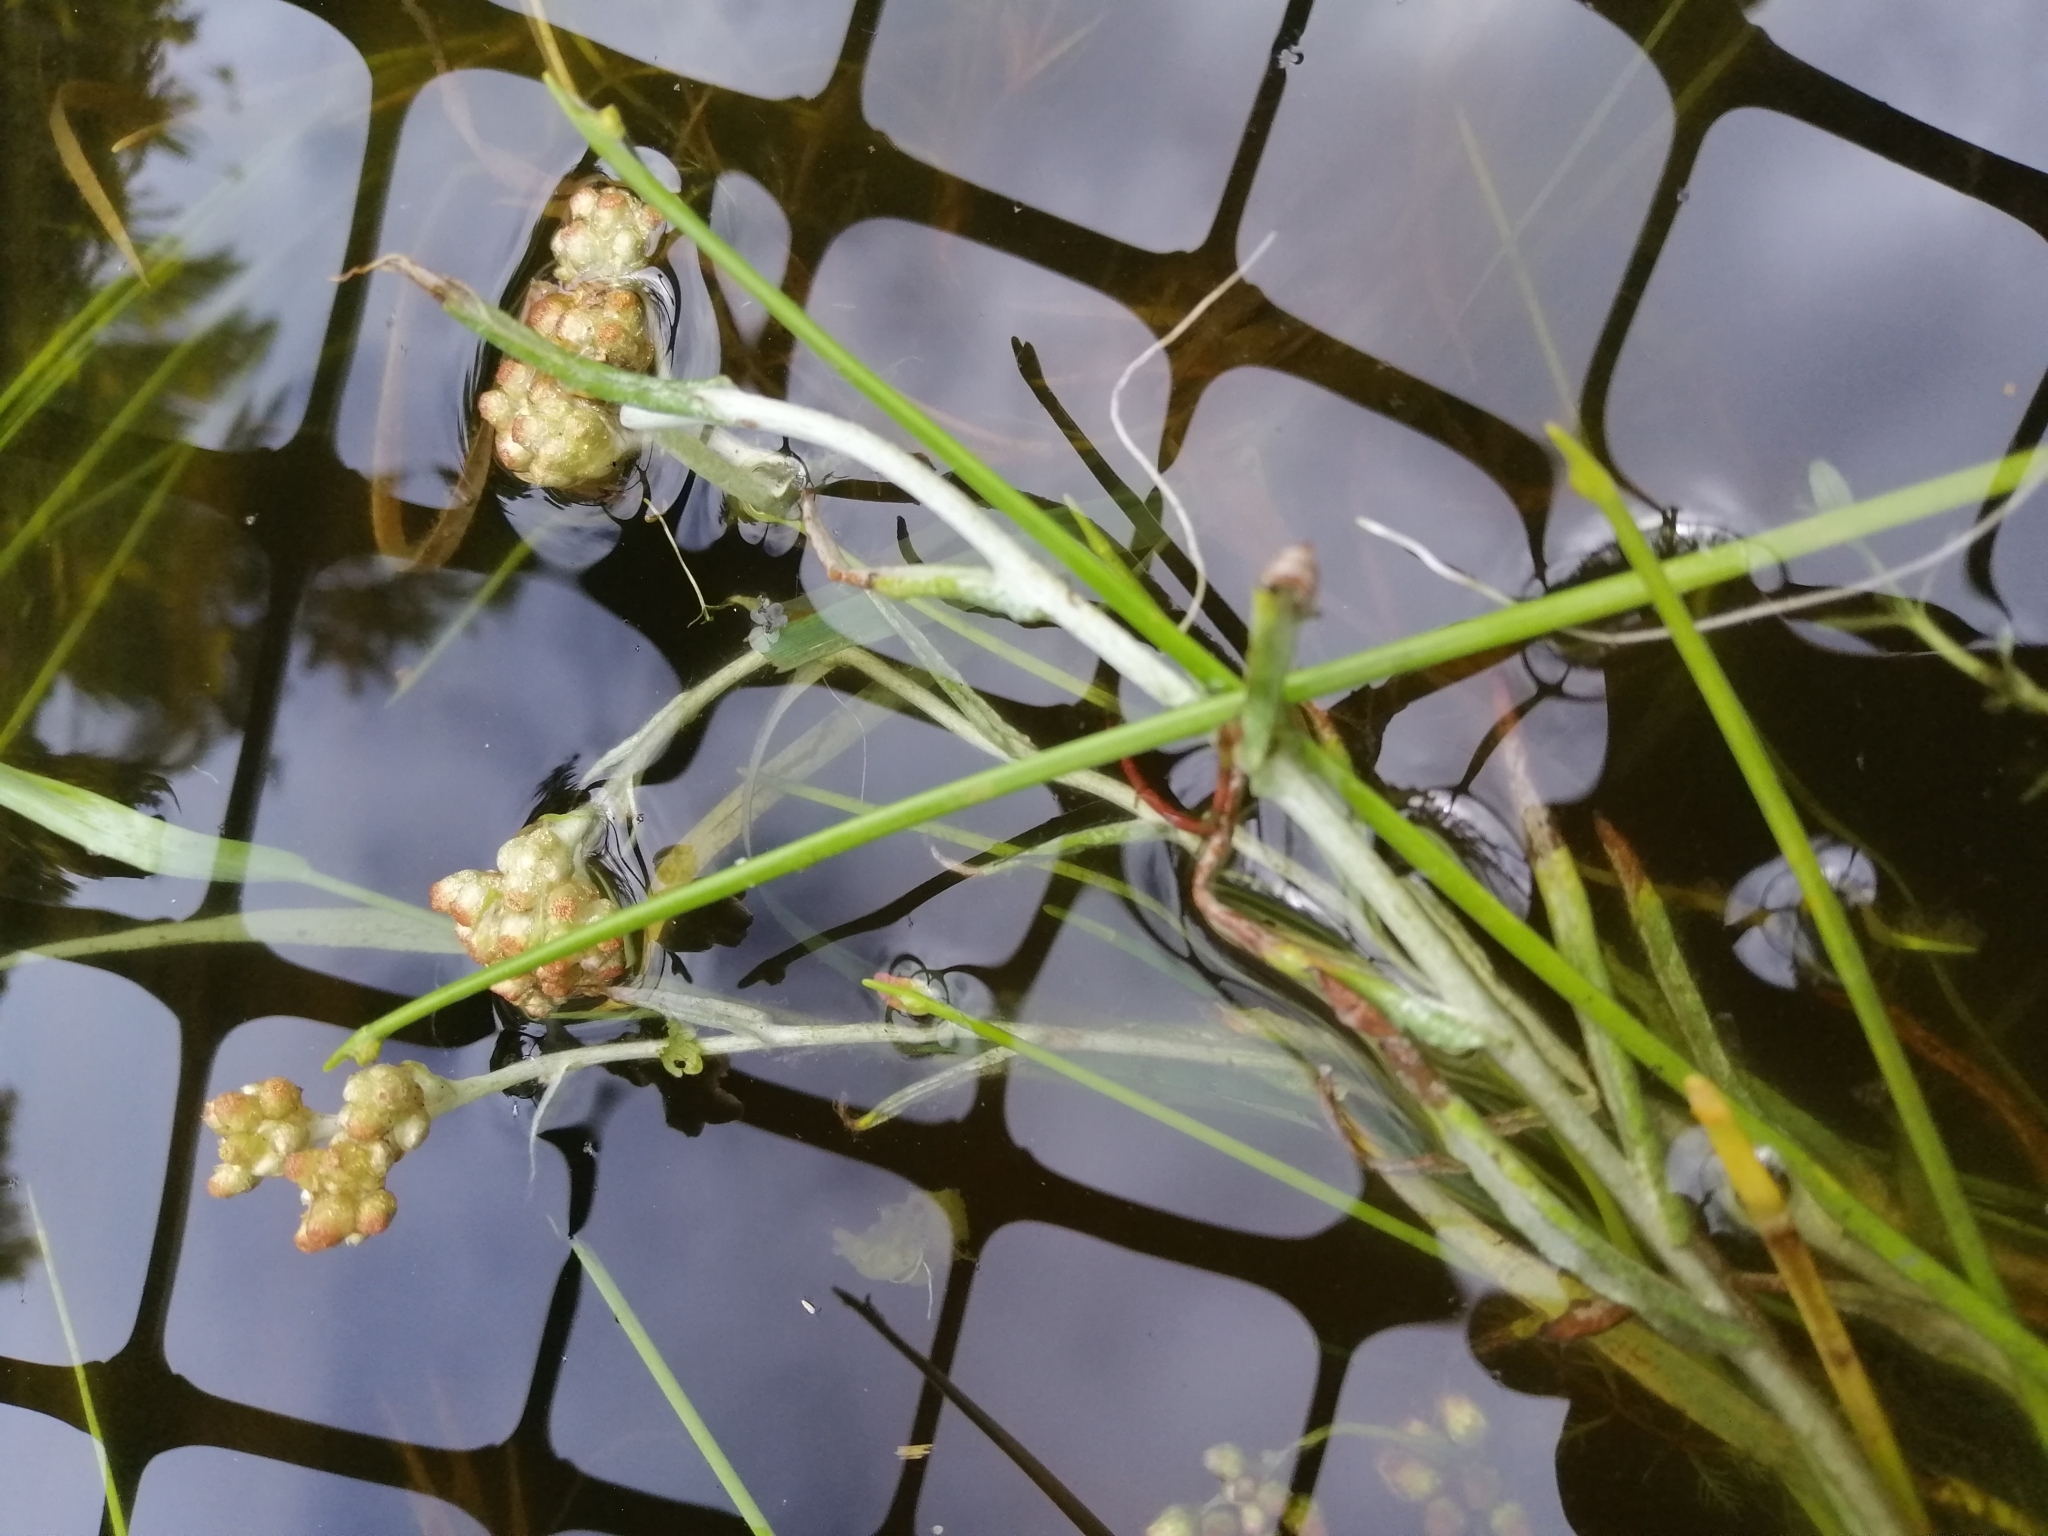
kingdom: Plantae
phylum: Tracheophyta
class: Magnoliopsida
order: Asterales
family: Asteraceae
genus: Helichrysum
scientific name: Helichrysum luteoalbum
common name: Daisy
